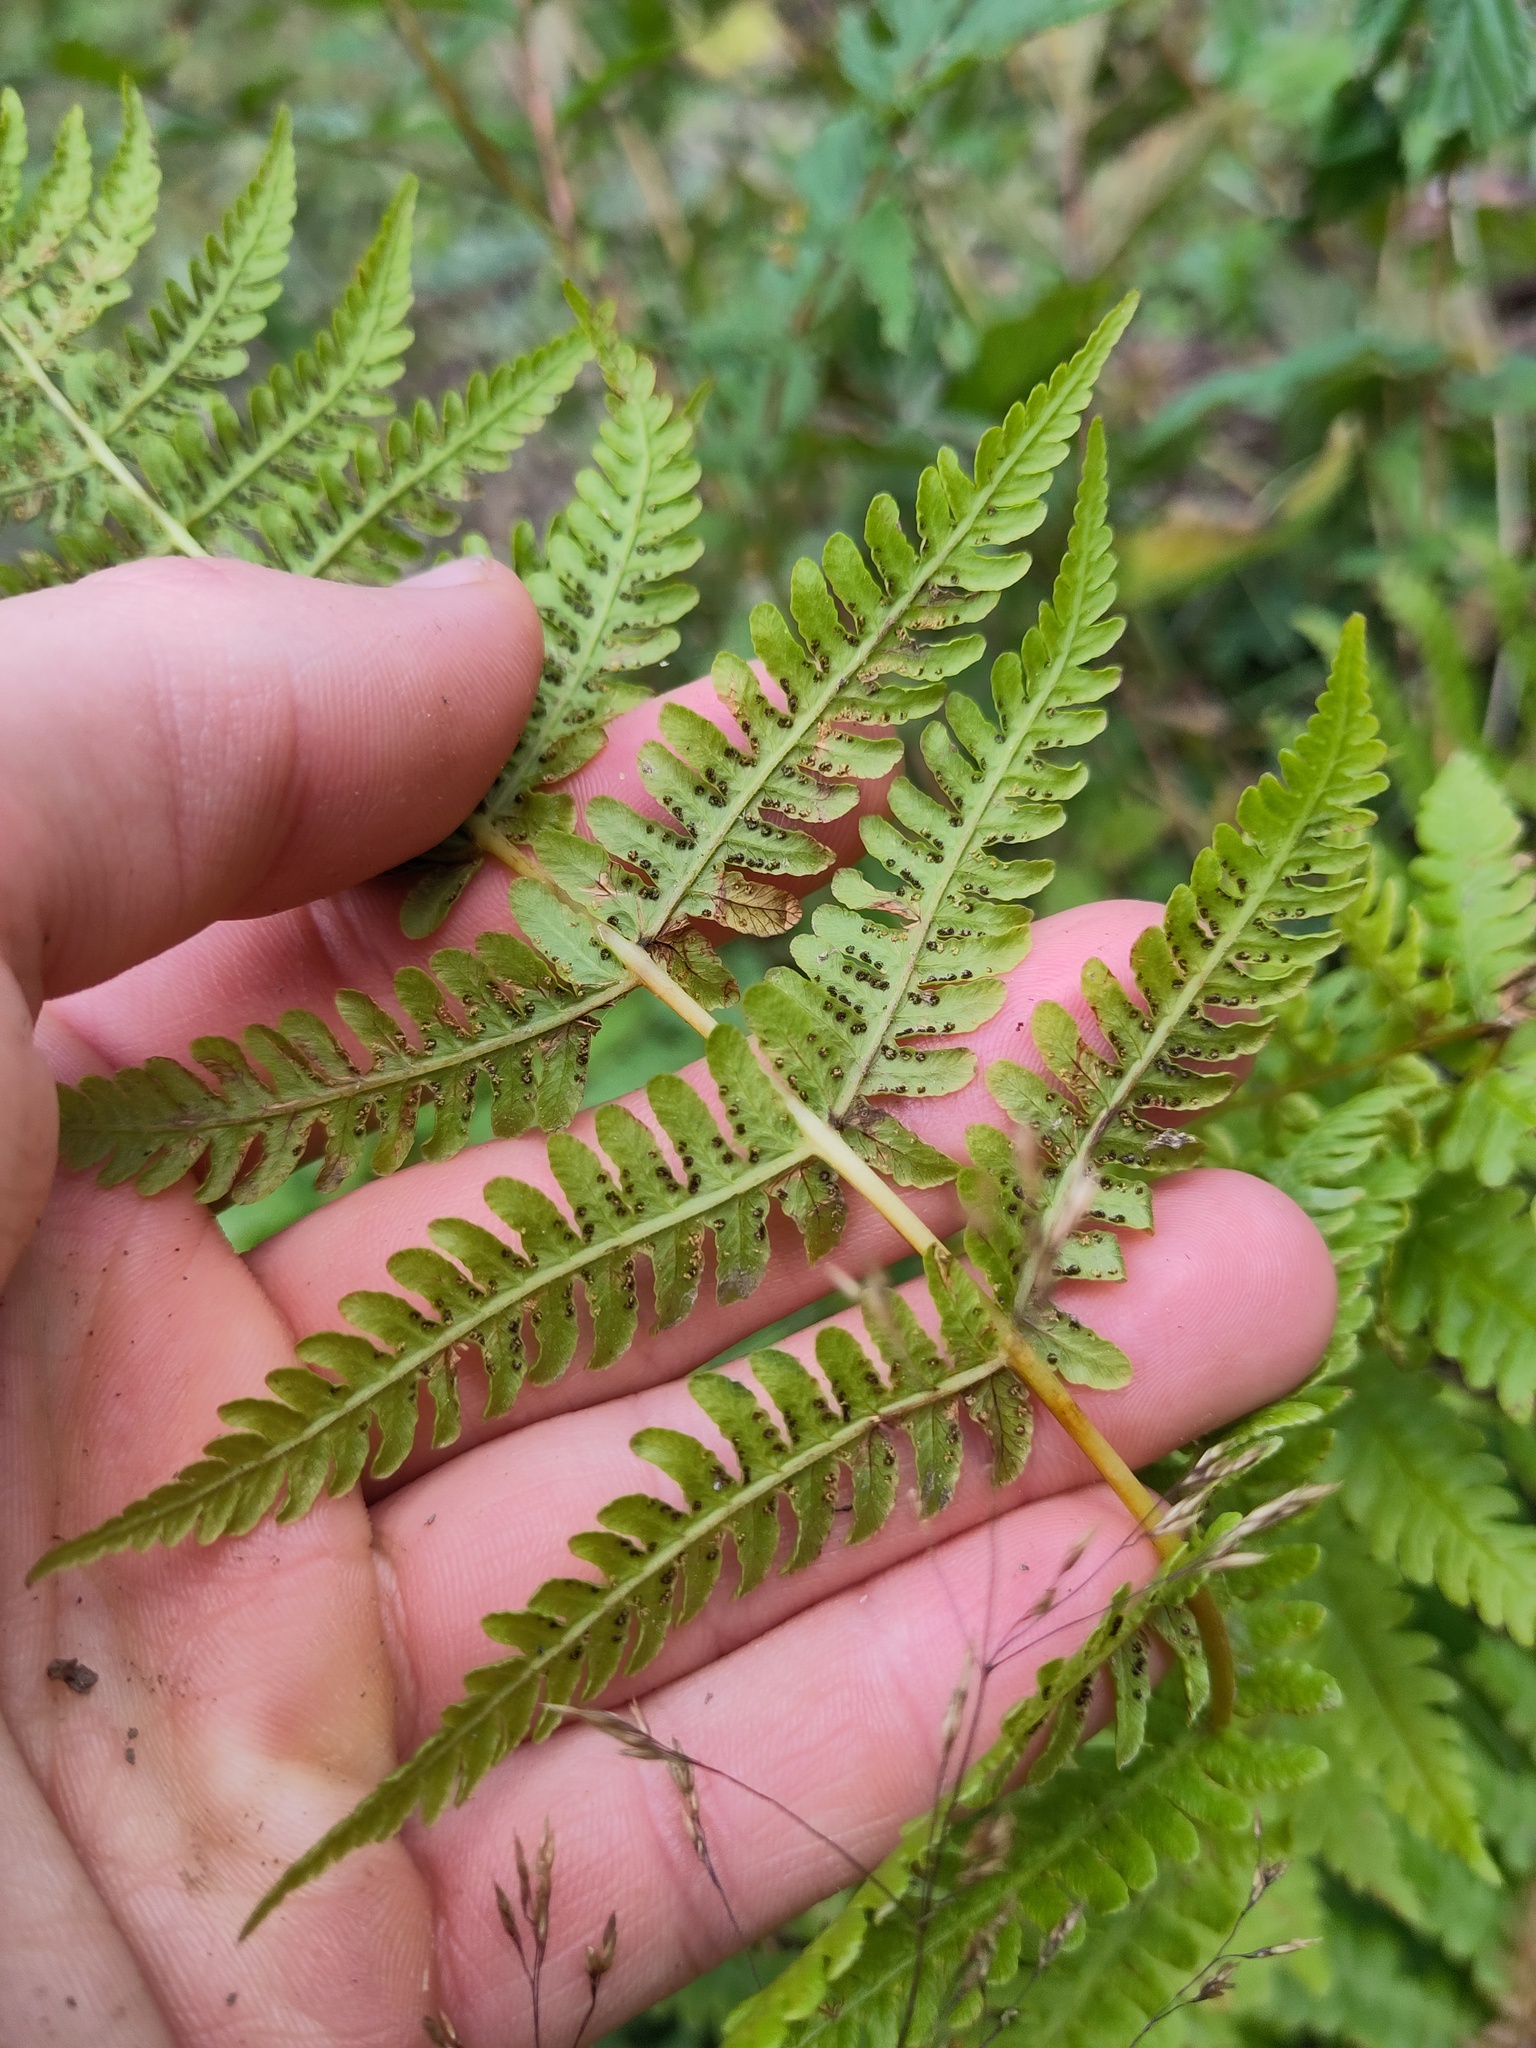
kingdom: Plantae
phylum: Tracheophyta
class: Polypodiopsida
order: Polypodiales
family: Thelypteridaceae
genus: Oreopteris
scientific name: Oreopteris limbosperma
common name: Lemon-scented fern
